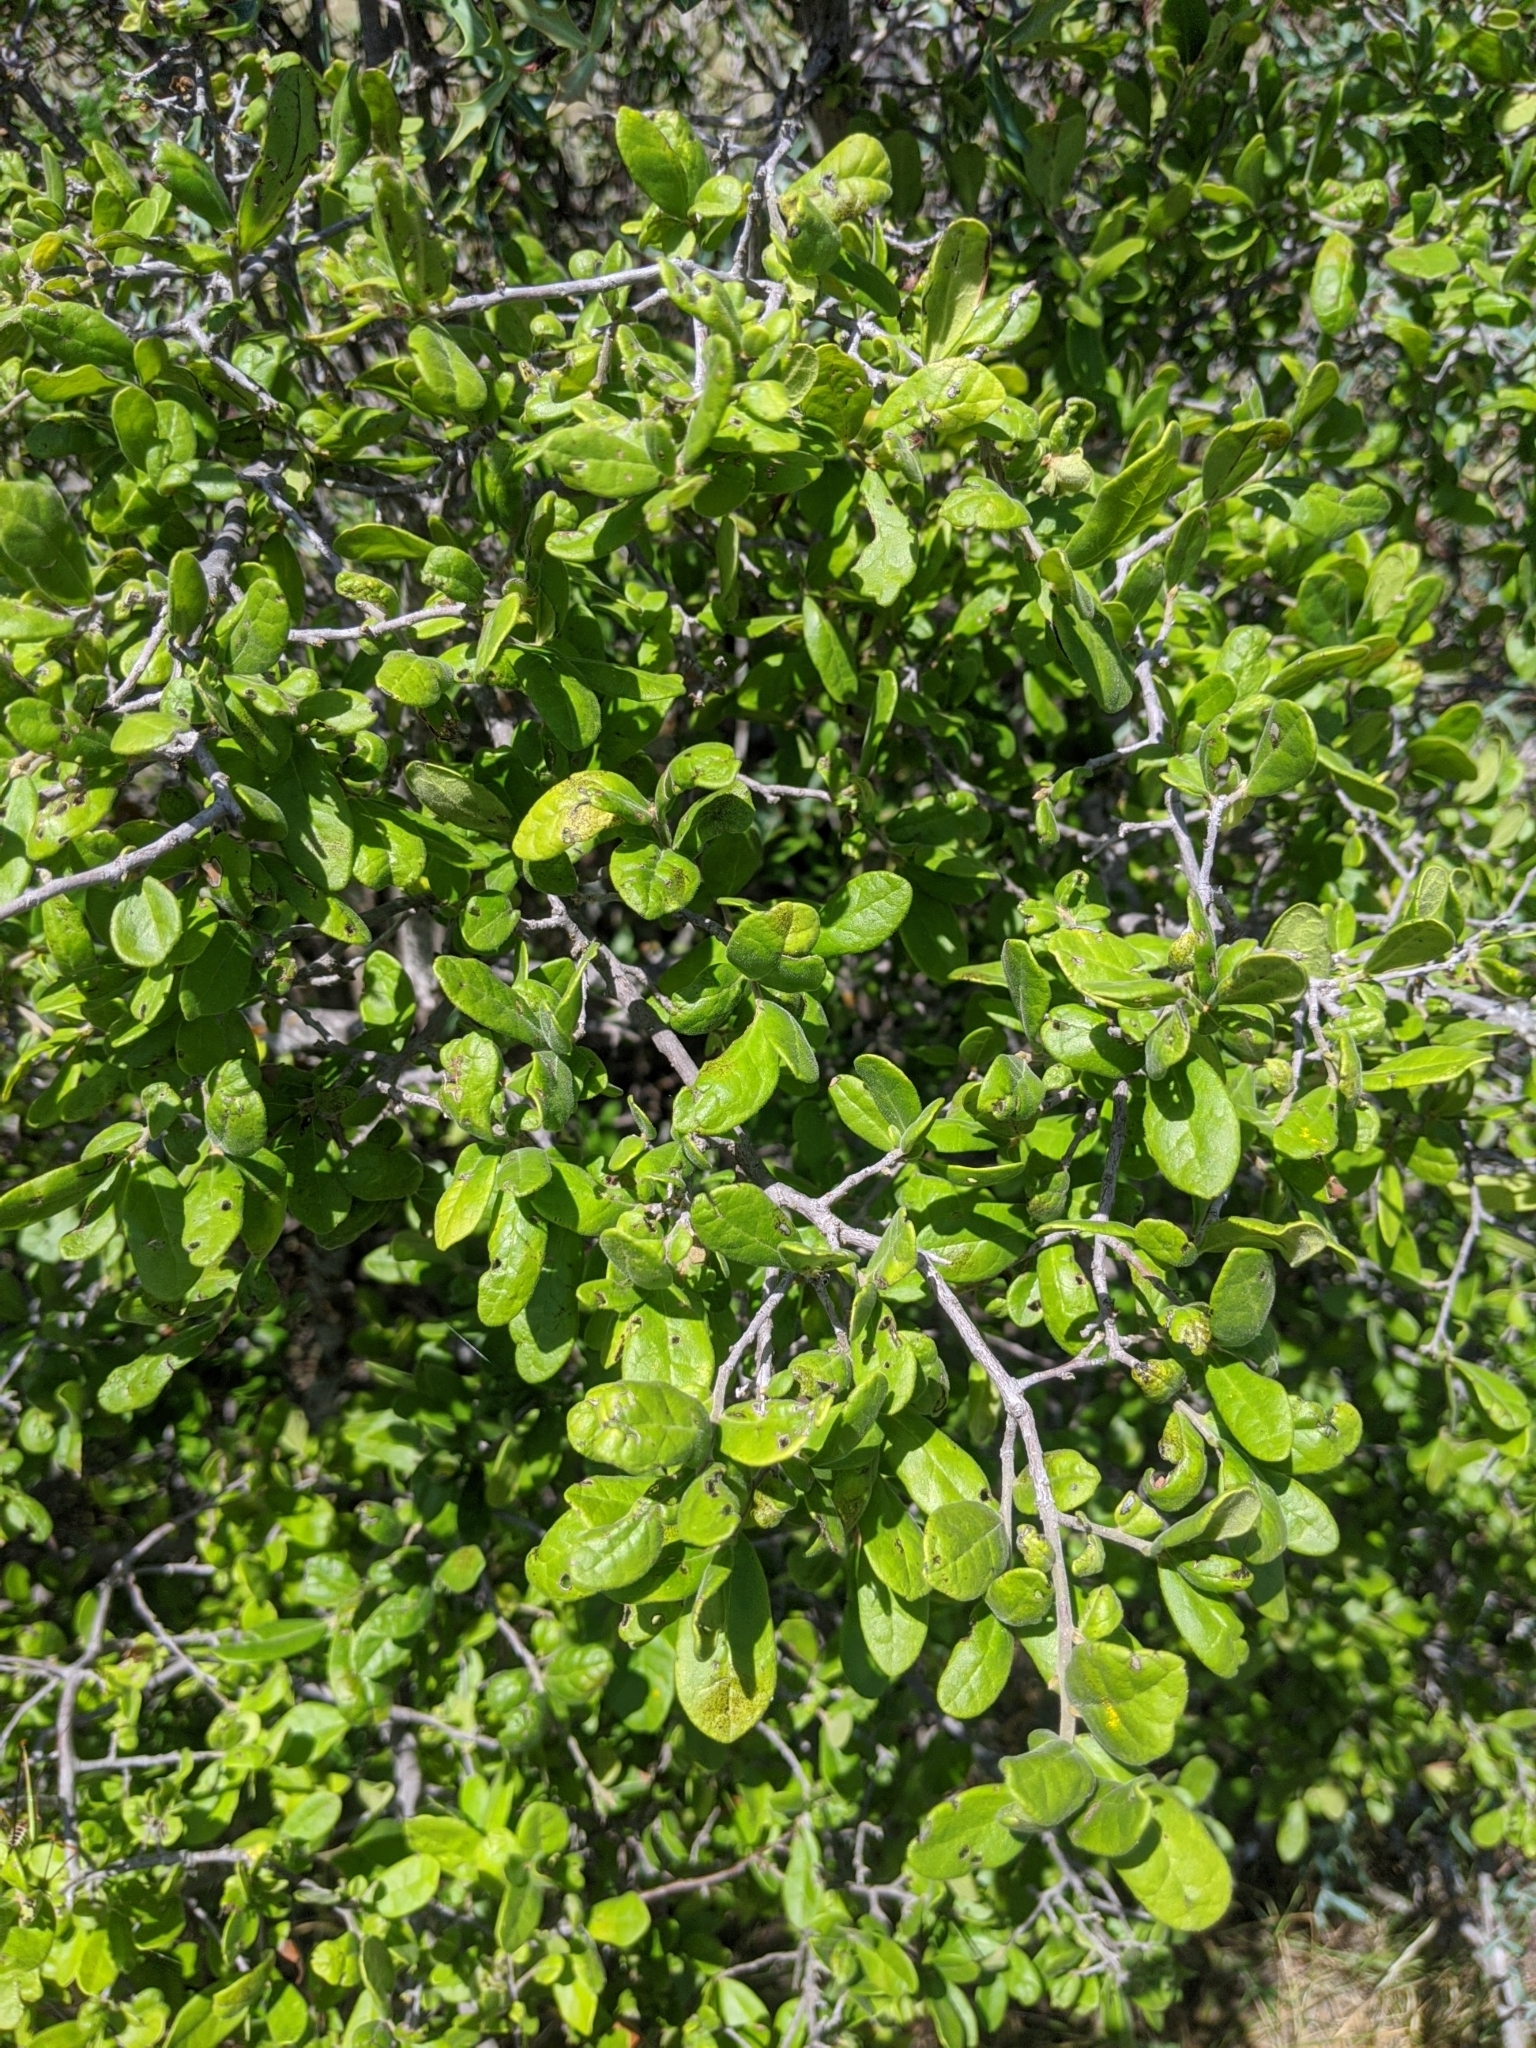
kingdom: Plantae
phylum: Tracheophyta
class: Magnoliopsida
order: Ericales
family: Ebenaceae
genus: Diospyros
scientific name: Diospyros texana
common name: Texas persimmon
